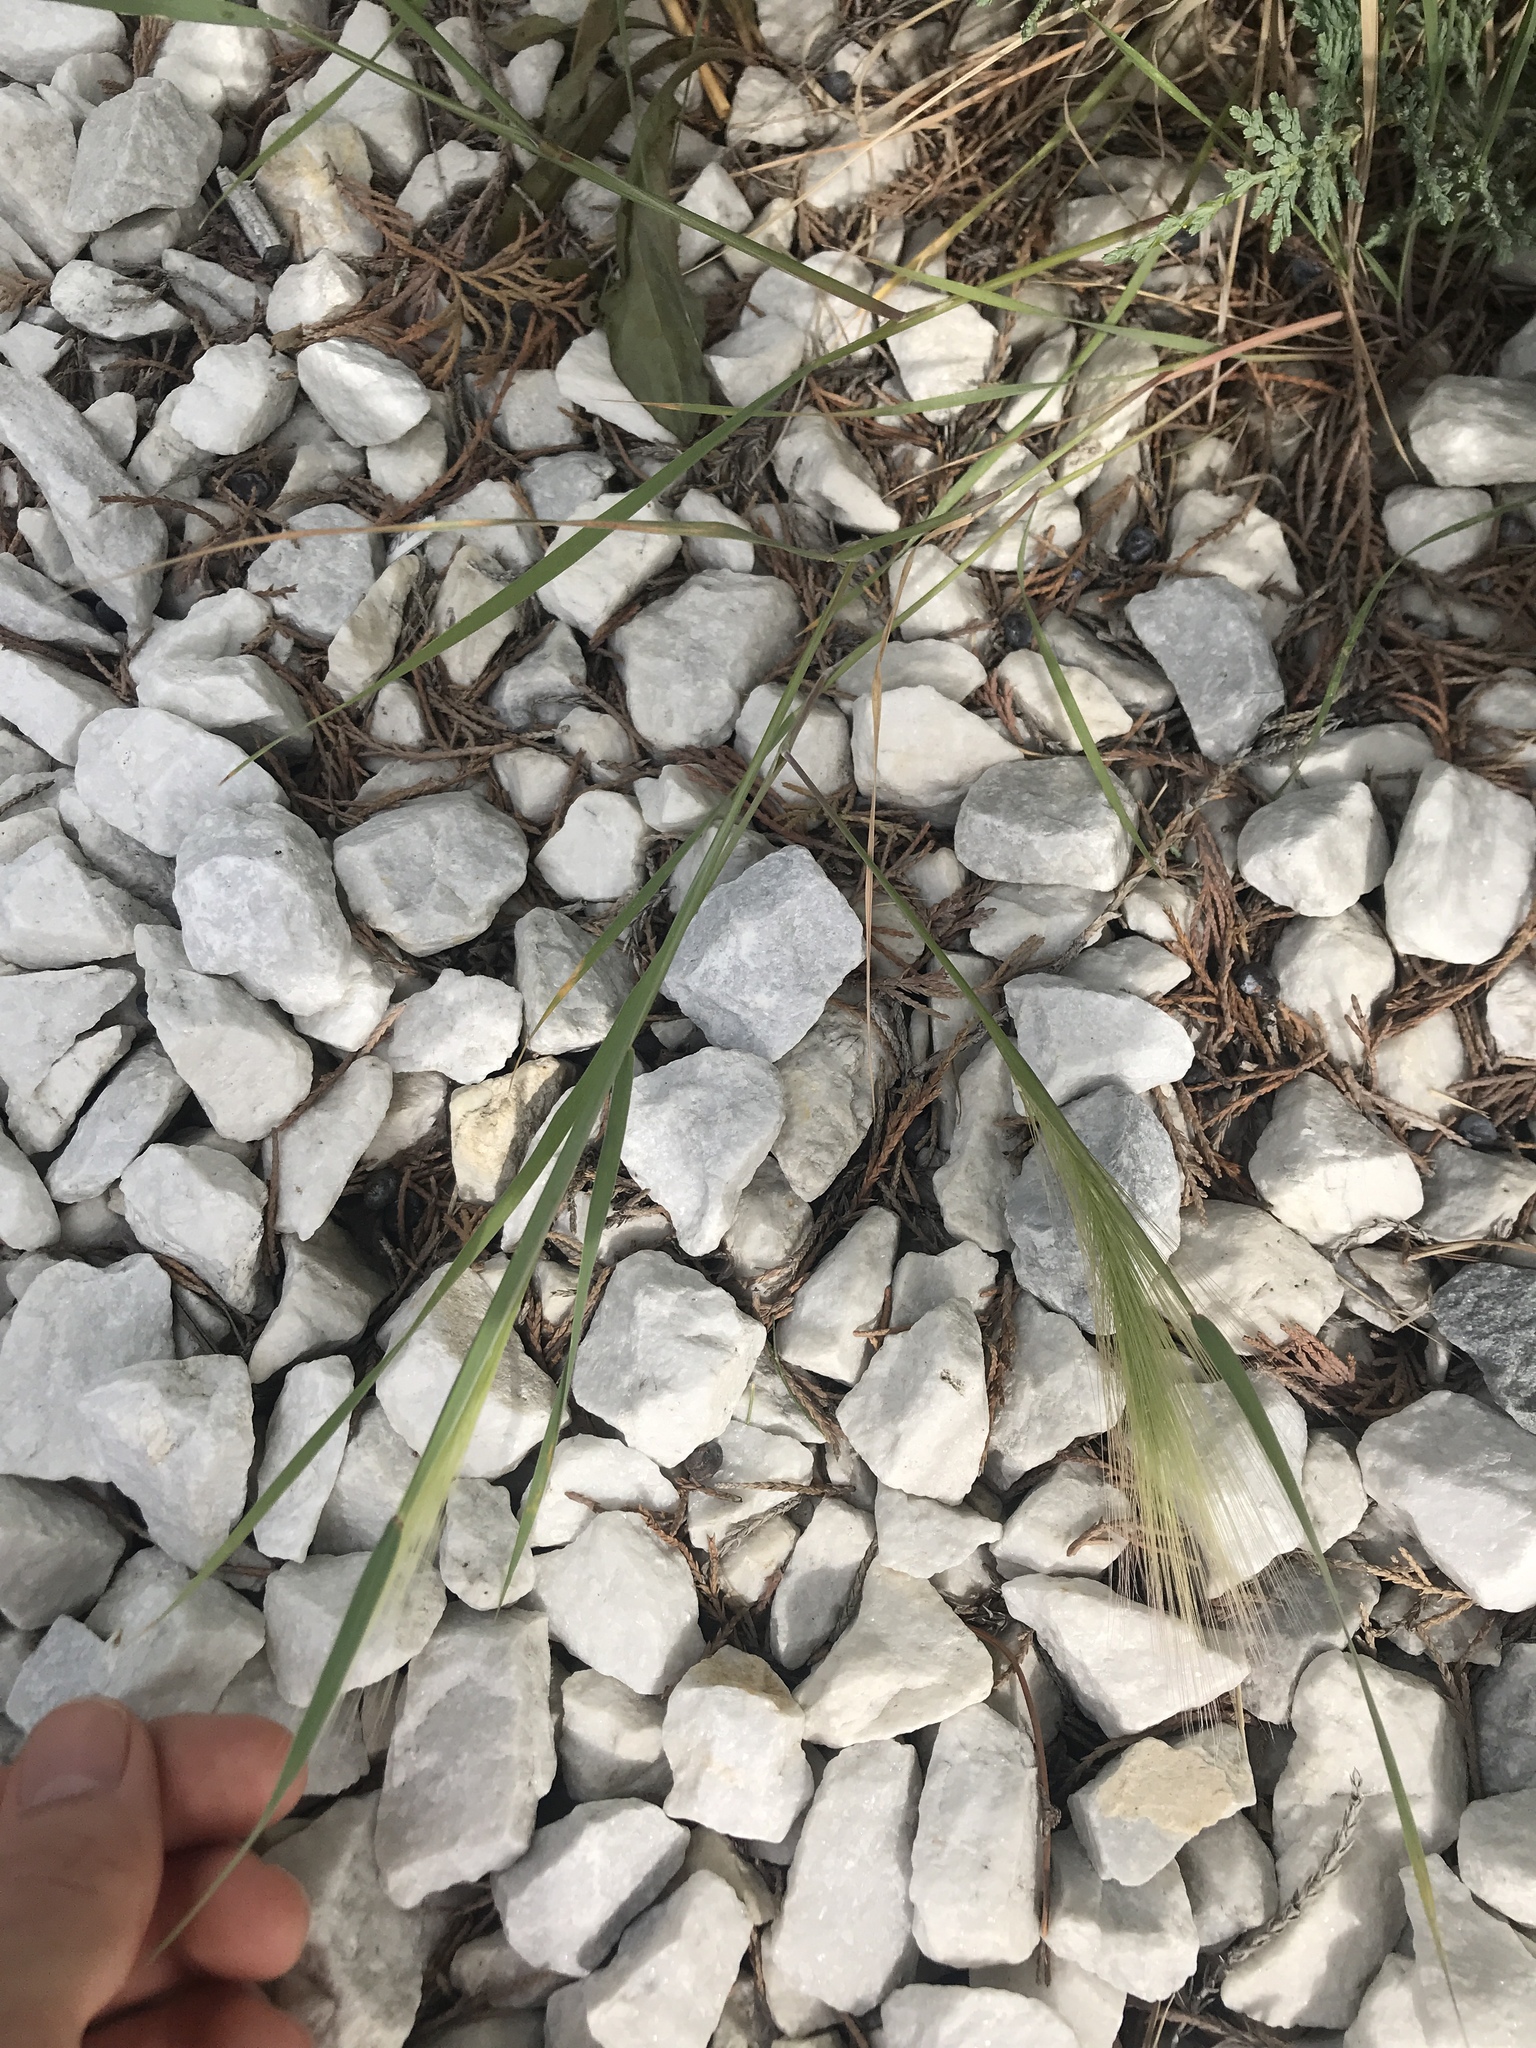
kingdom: Plantae
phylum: Tracheophyta
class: Liliopsida
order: Poales
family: Poaceae
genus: Hordeum
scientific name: Hordeum jubatum
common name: Foxtail barley
